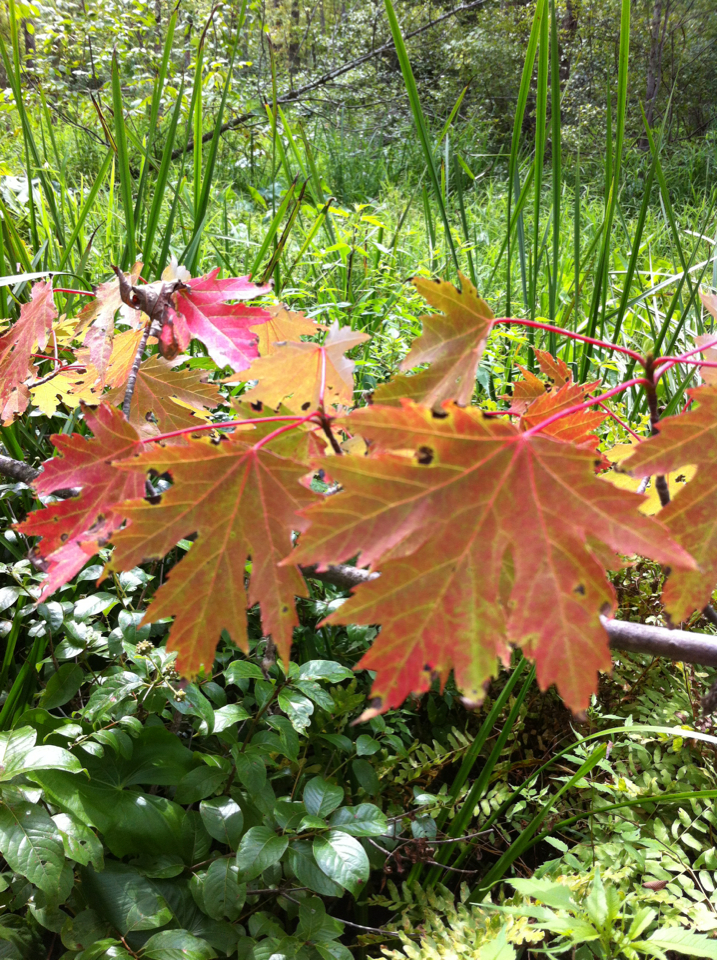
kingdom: Plantae
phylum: Tracheophyta
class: Magnoliopsida
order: Sapindales
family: Sapindaceae
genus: Acer
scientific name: Acer freemanii
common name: Freeman maple
